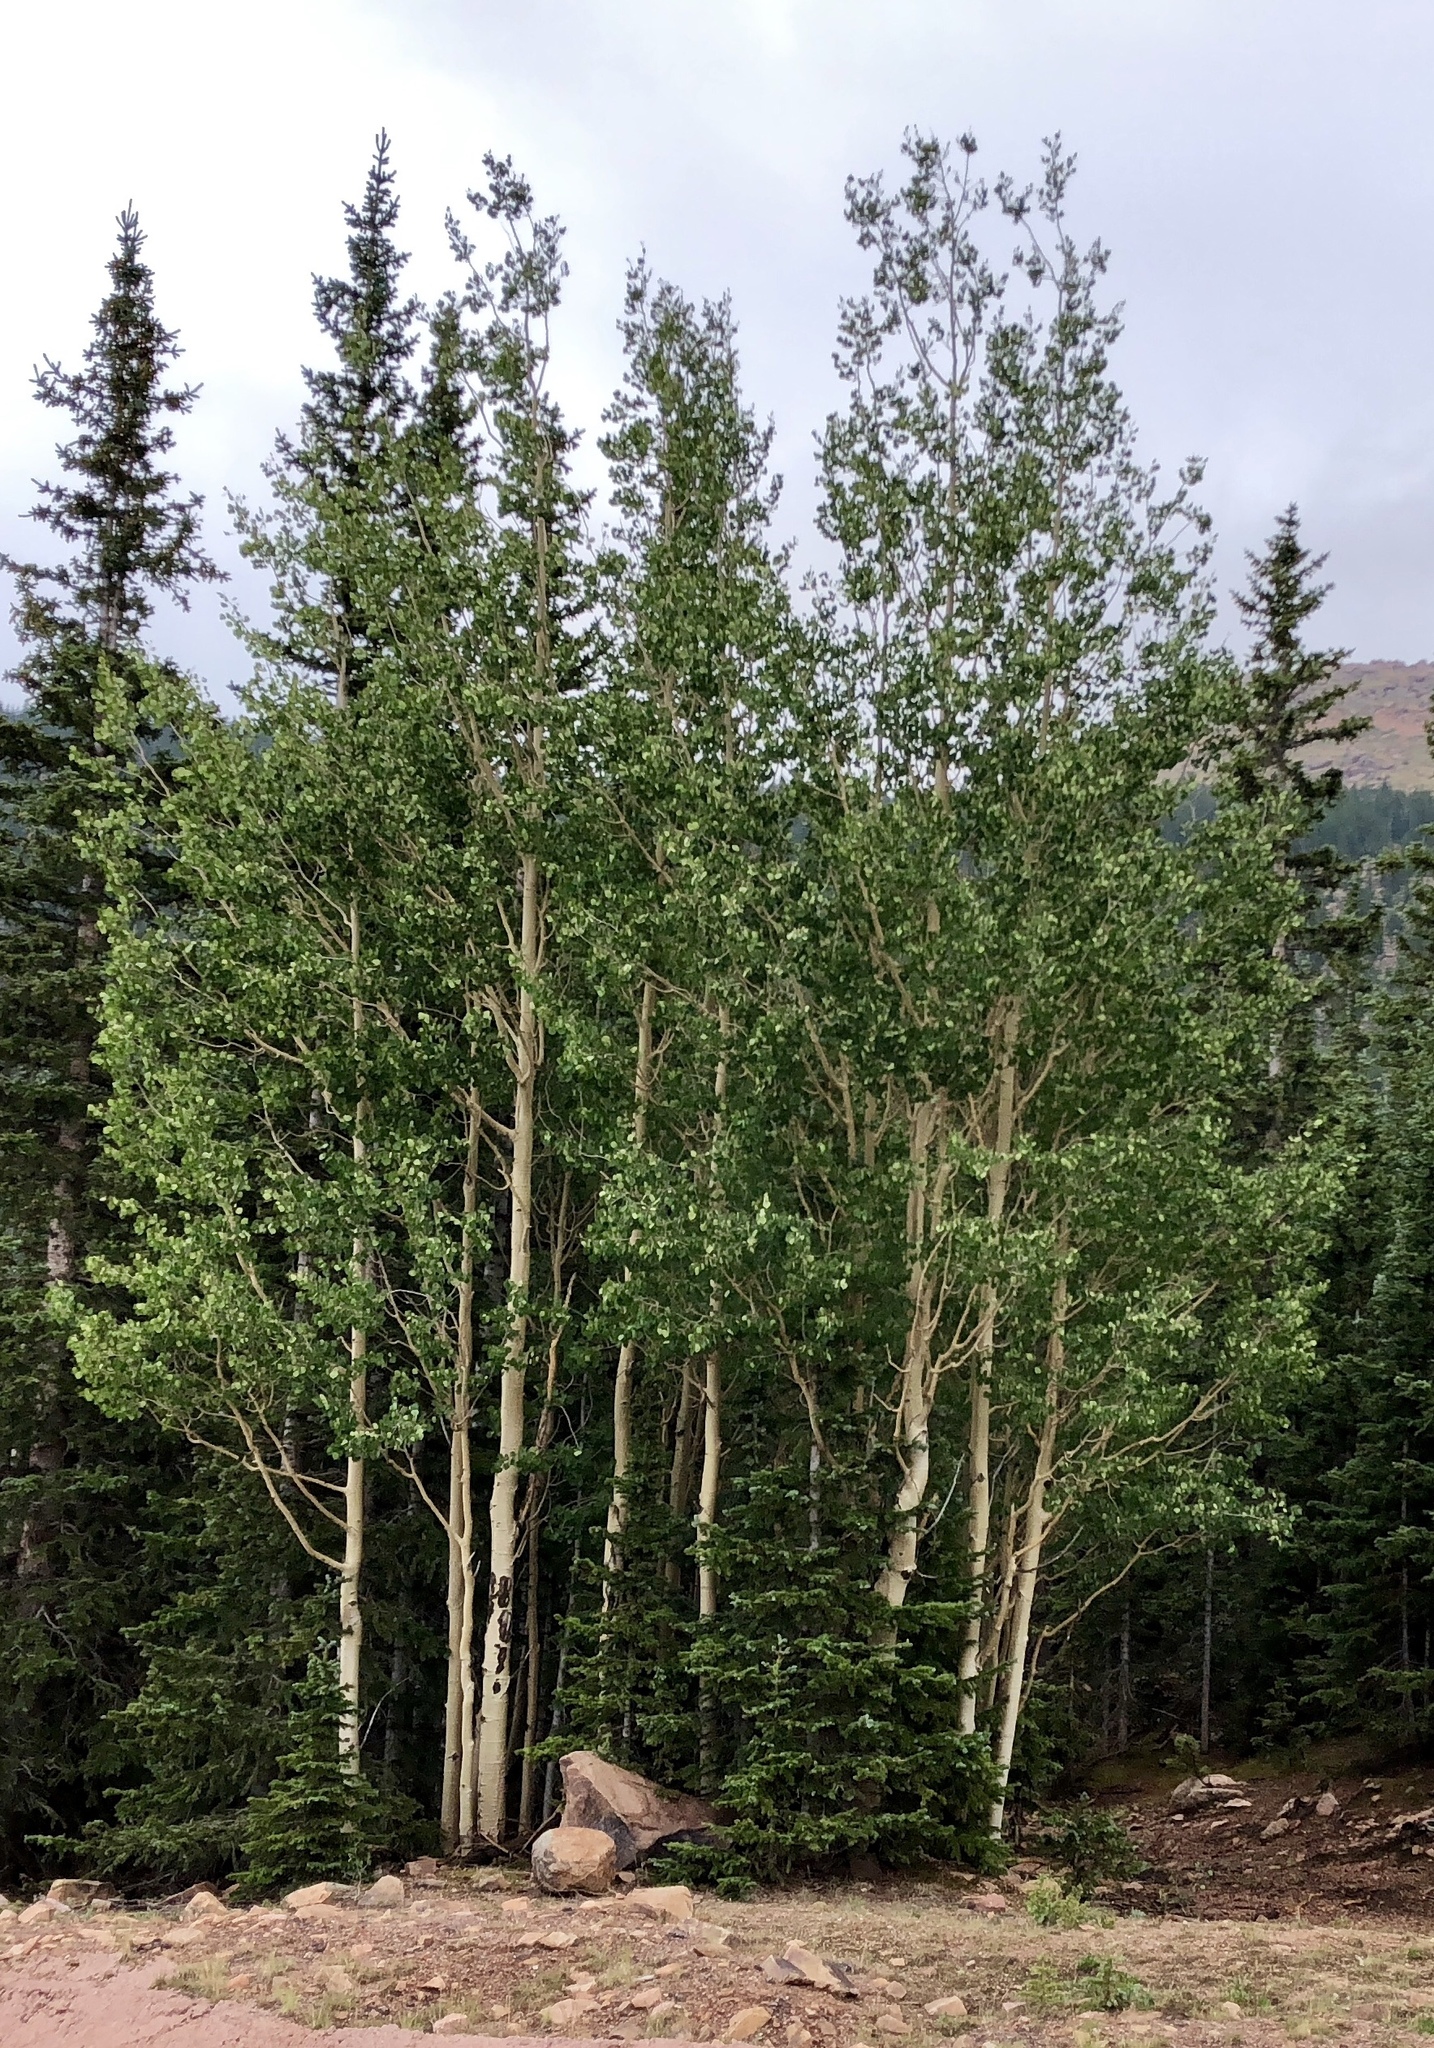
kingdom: Plantae
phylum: Tracheophyta
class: Magnoliopsida
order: Malpighiales
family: Salicaceae
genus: Populus
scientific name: Populus tremuloides
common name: Quaking aspen
